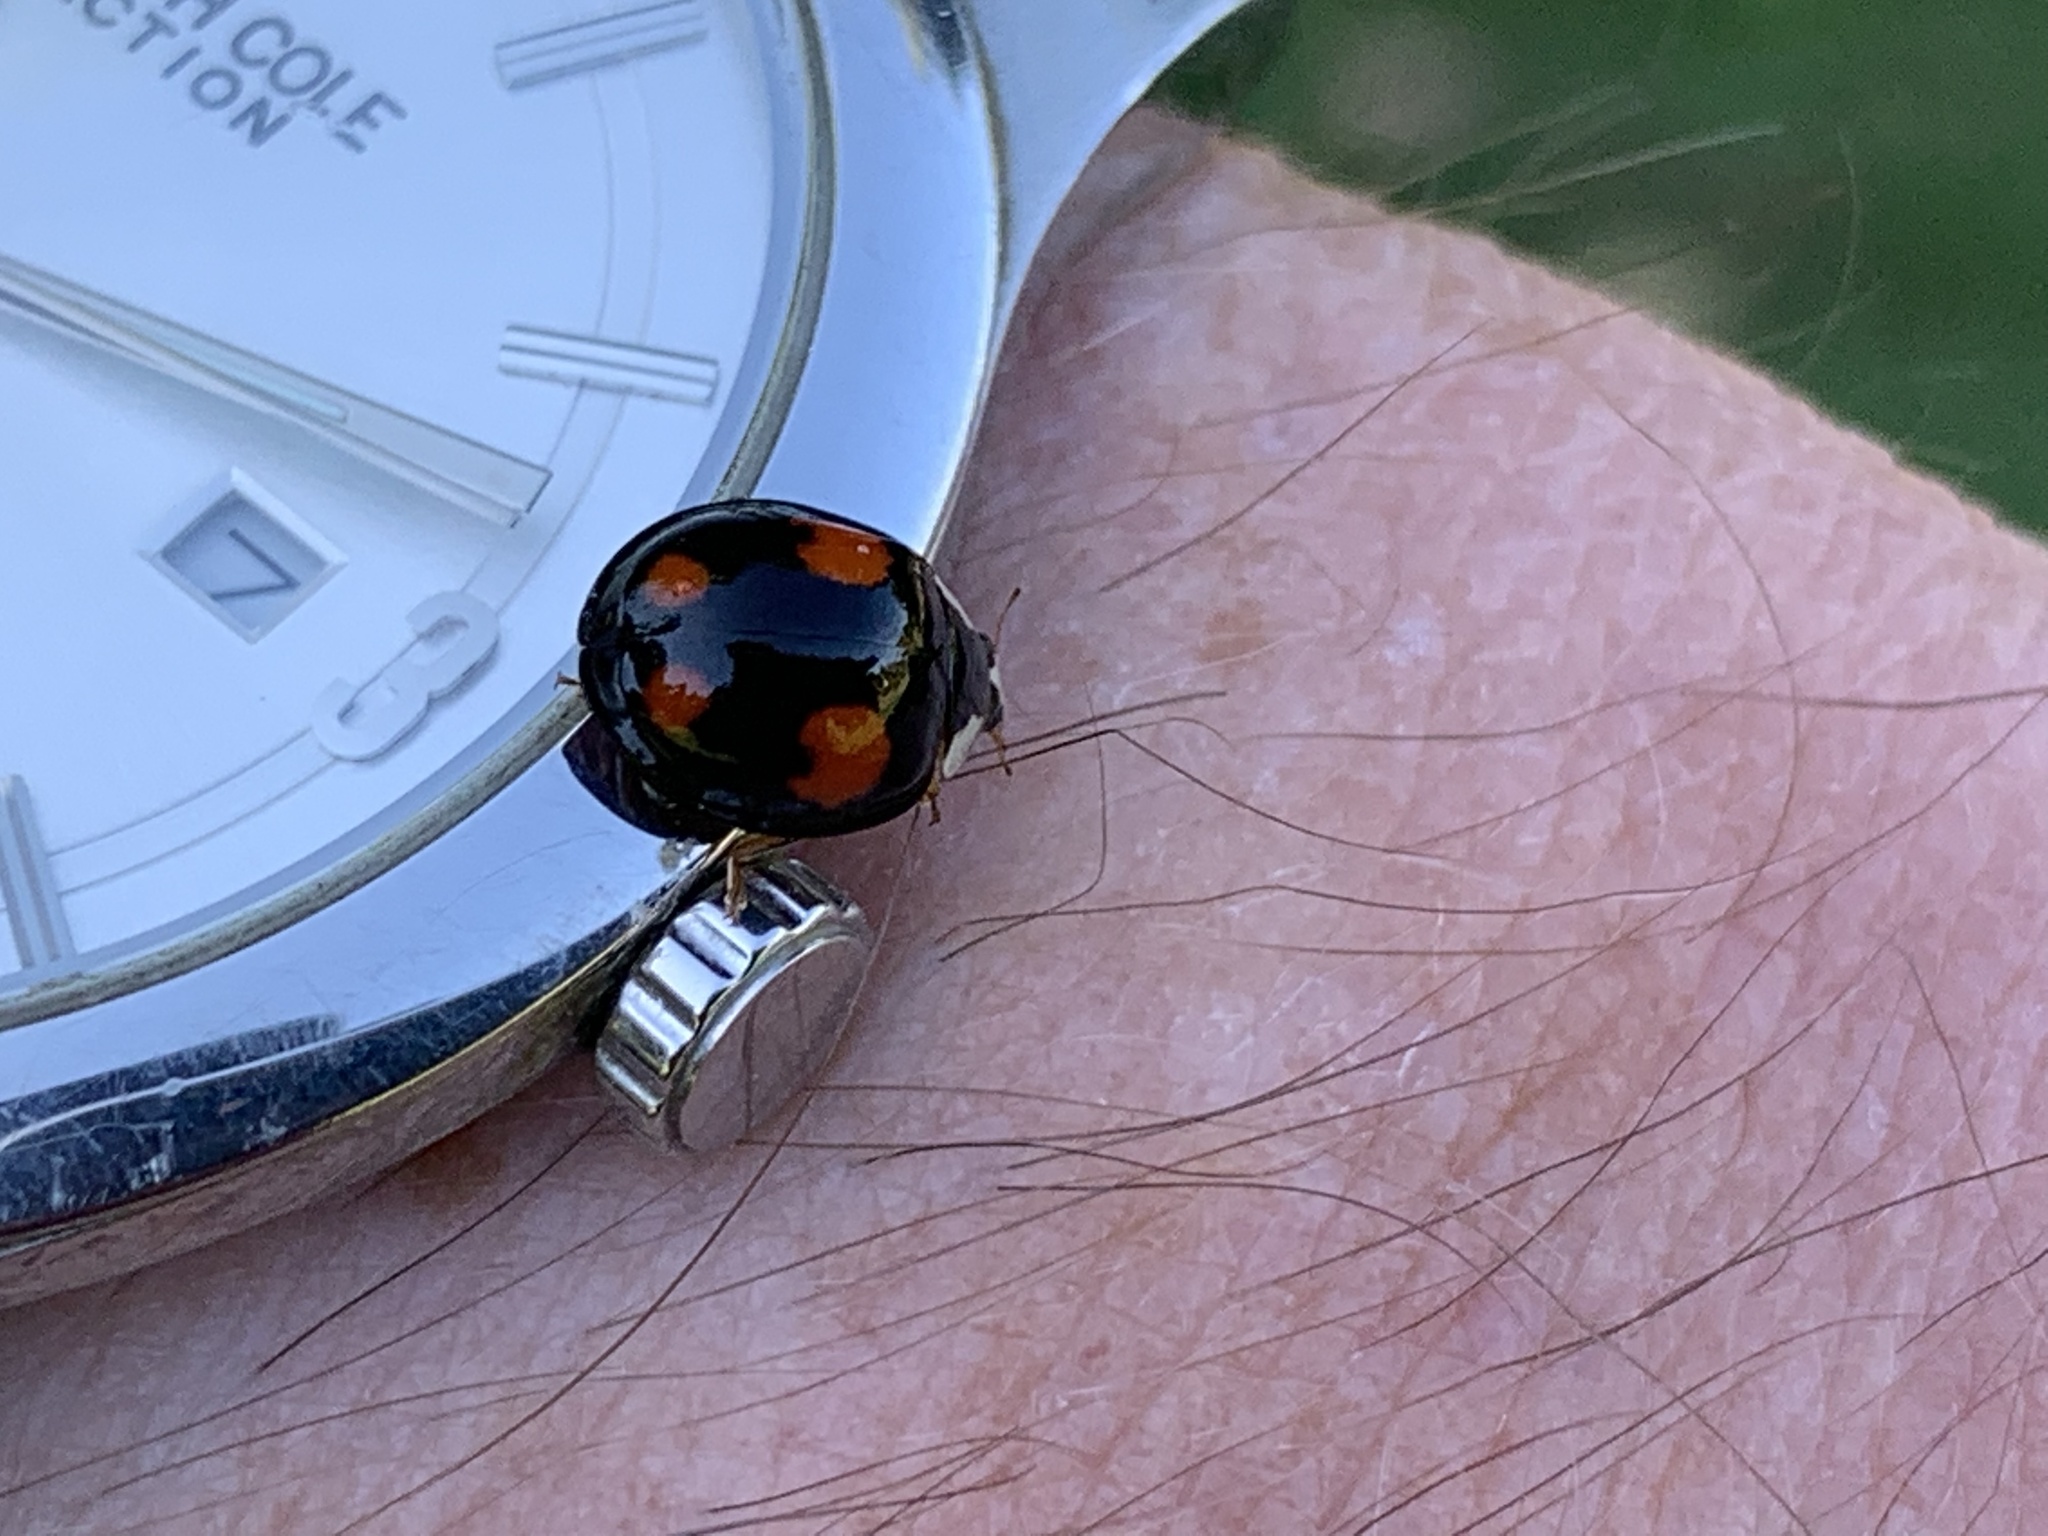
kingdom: Animalia
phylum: Arthropoda
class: Insecta
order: Coleoptera
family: Coccinellidae
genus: Harmonia
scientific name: Harmonia axyridis
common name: Harlequin ladybird
